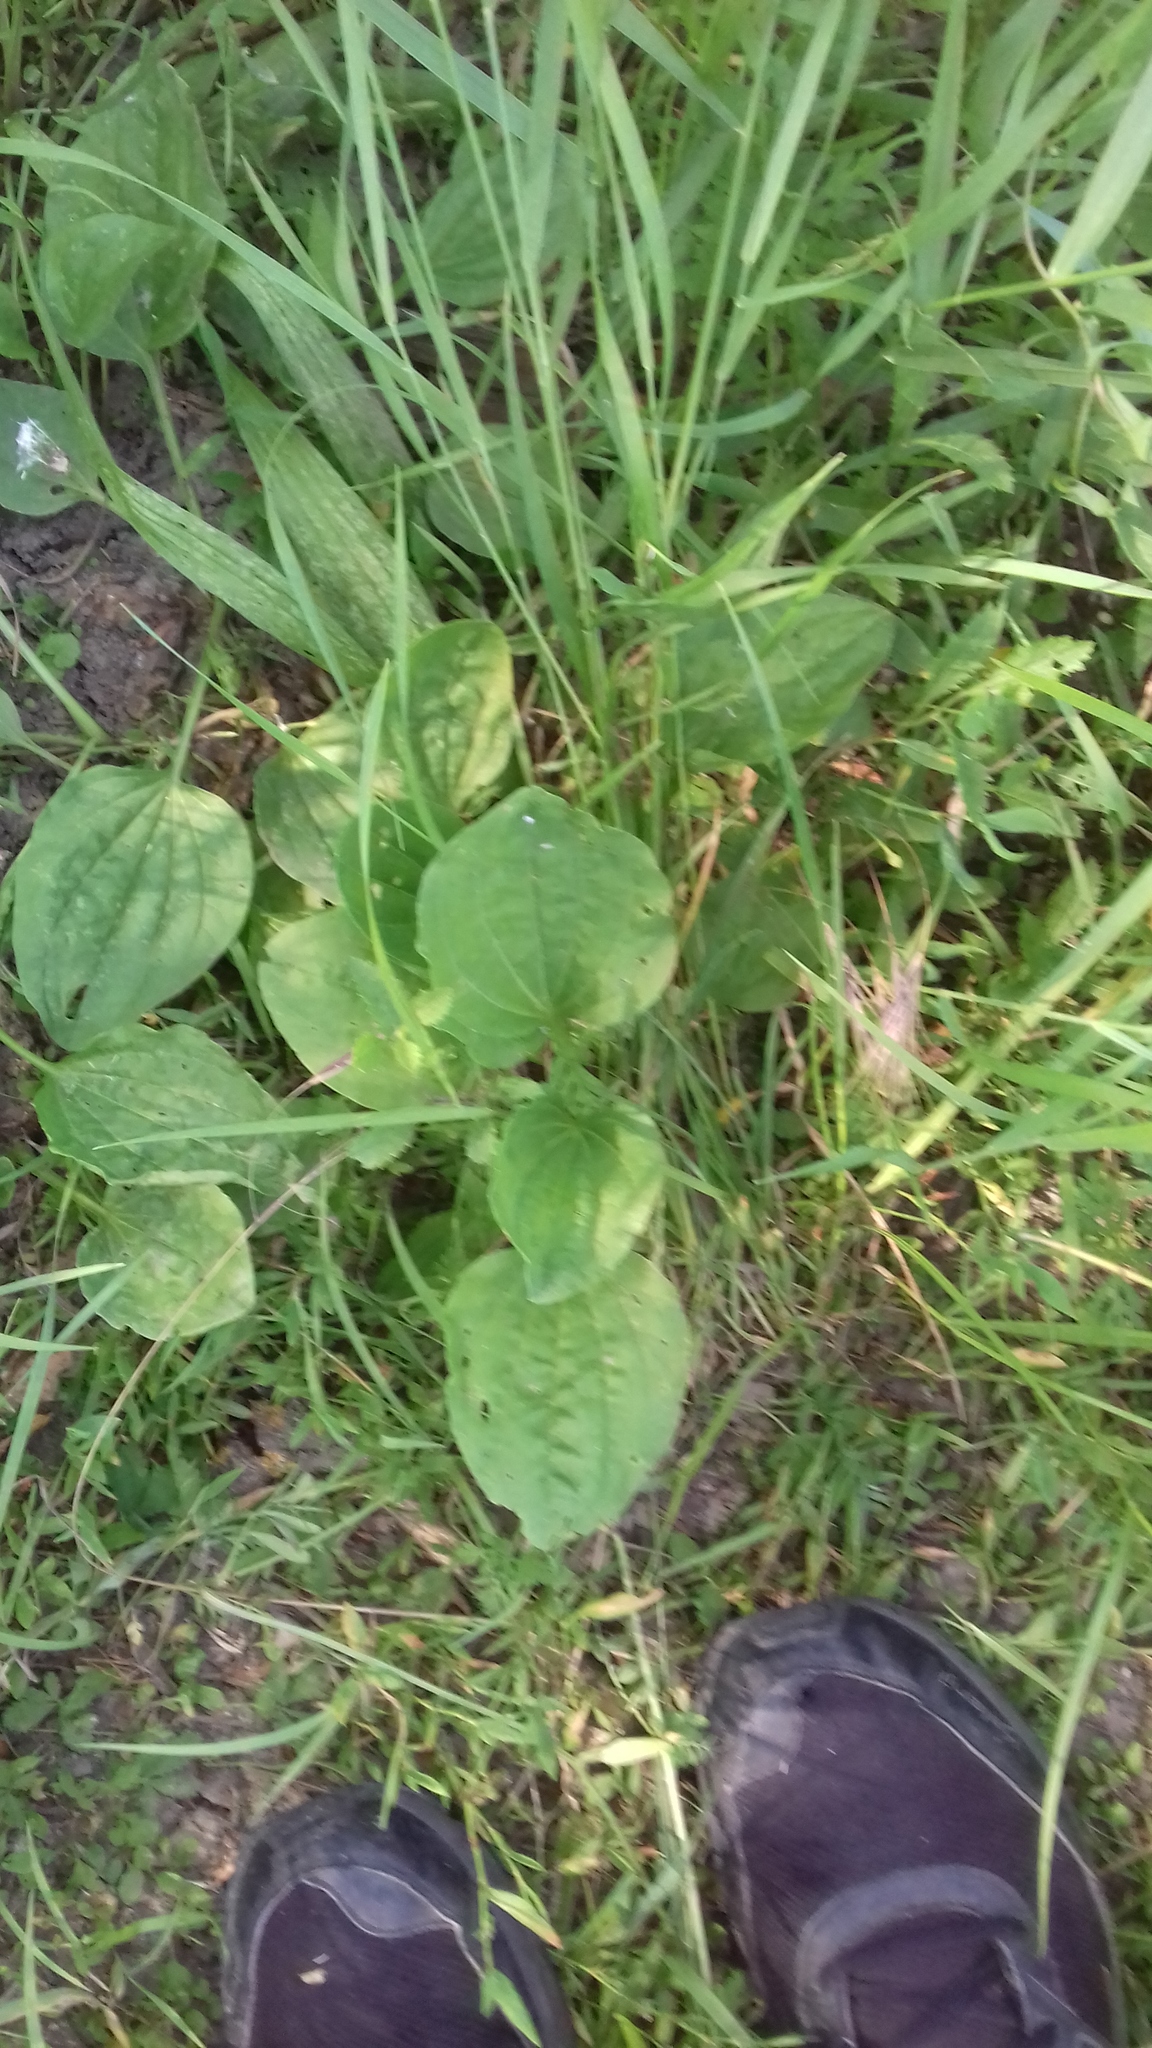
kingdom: Plantae
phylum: Tracheophyta
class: Magnoliopsida
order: Lamiales
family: Plantaginaceae
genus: Plantago
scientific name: Plantago major
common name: Common plantain
